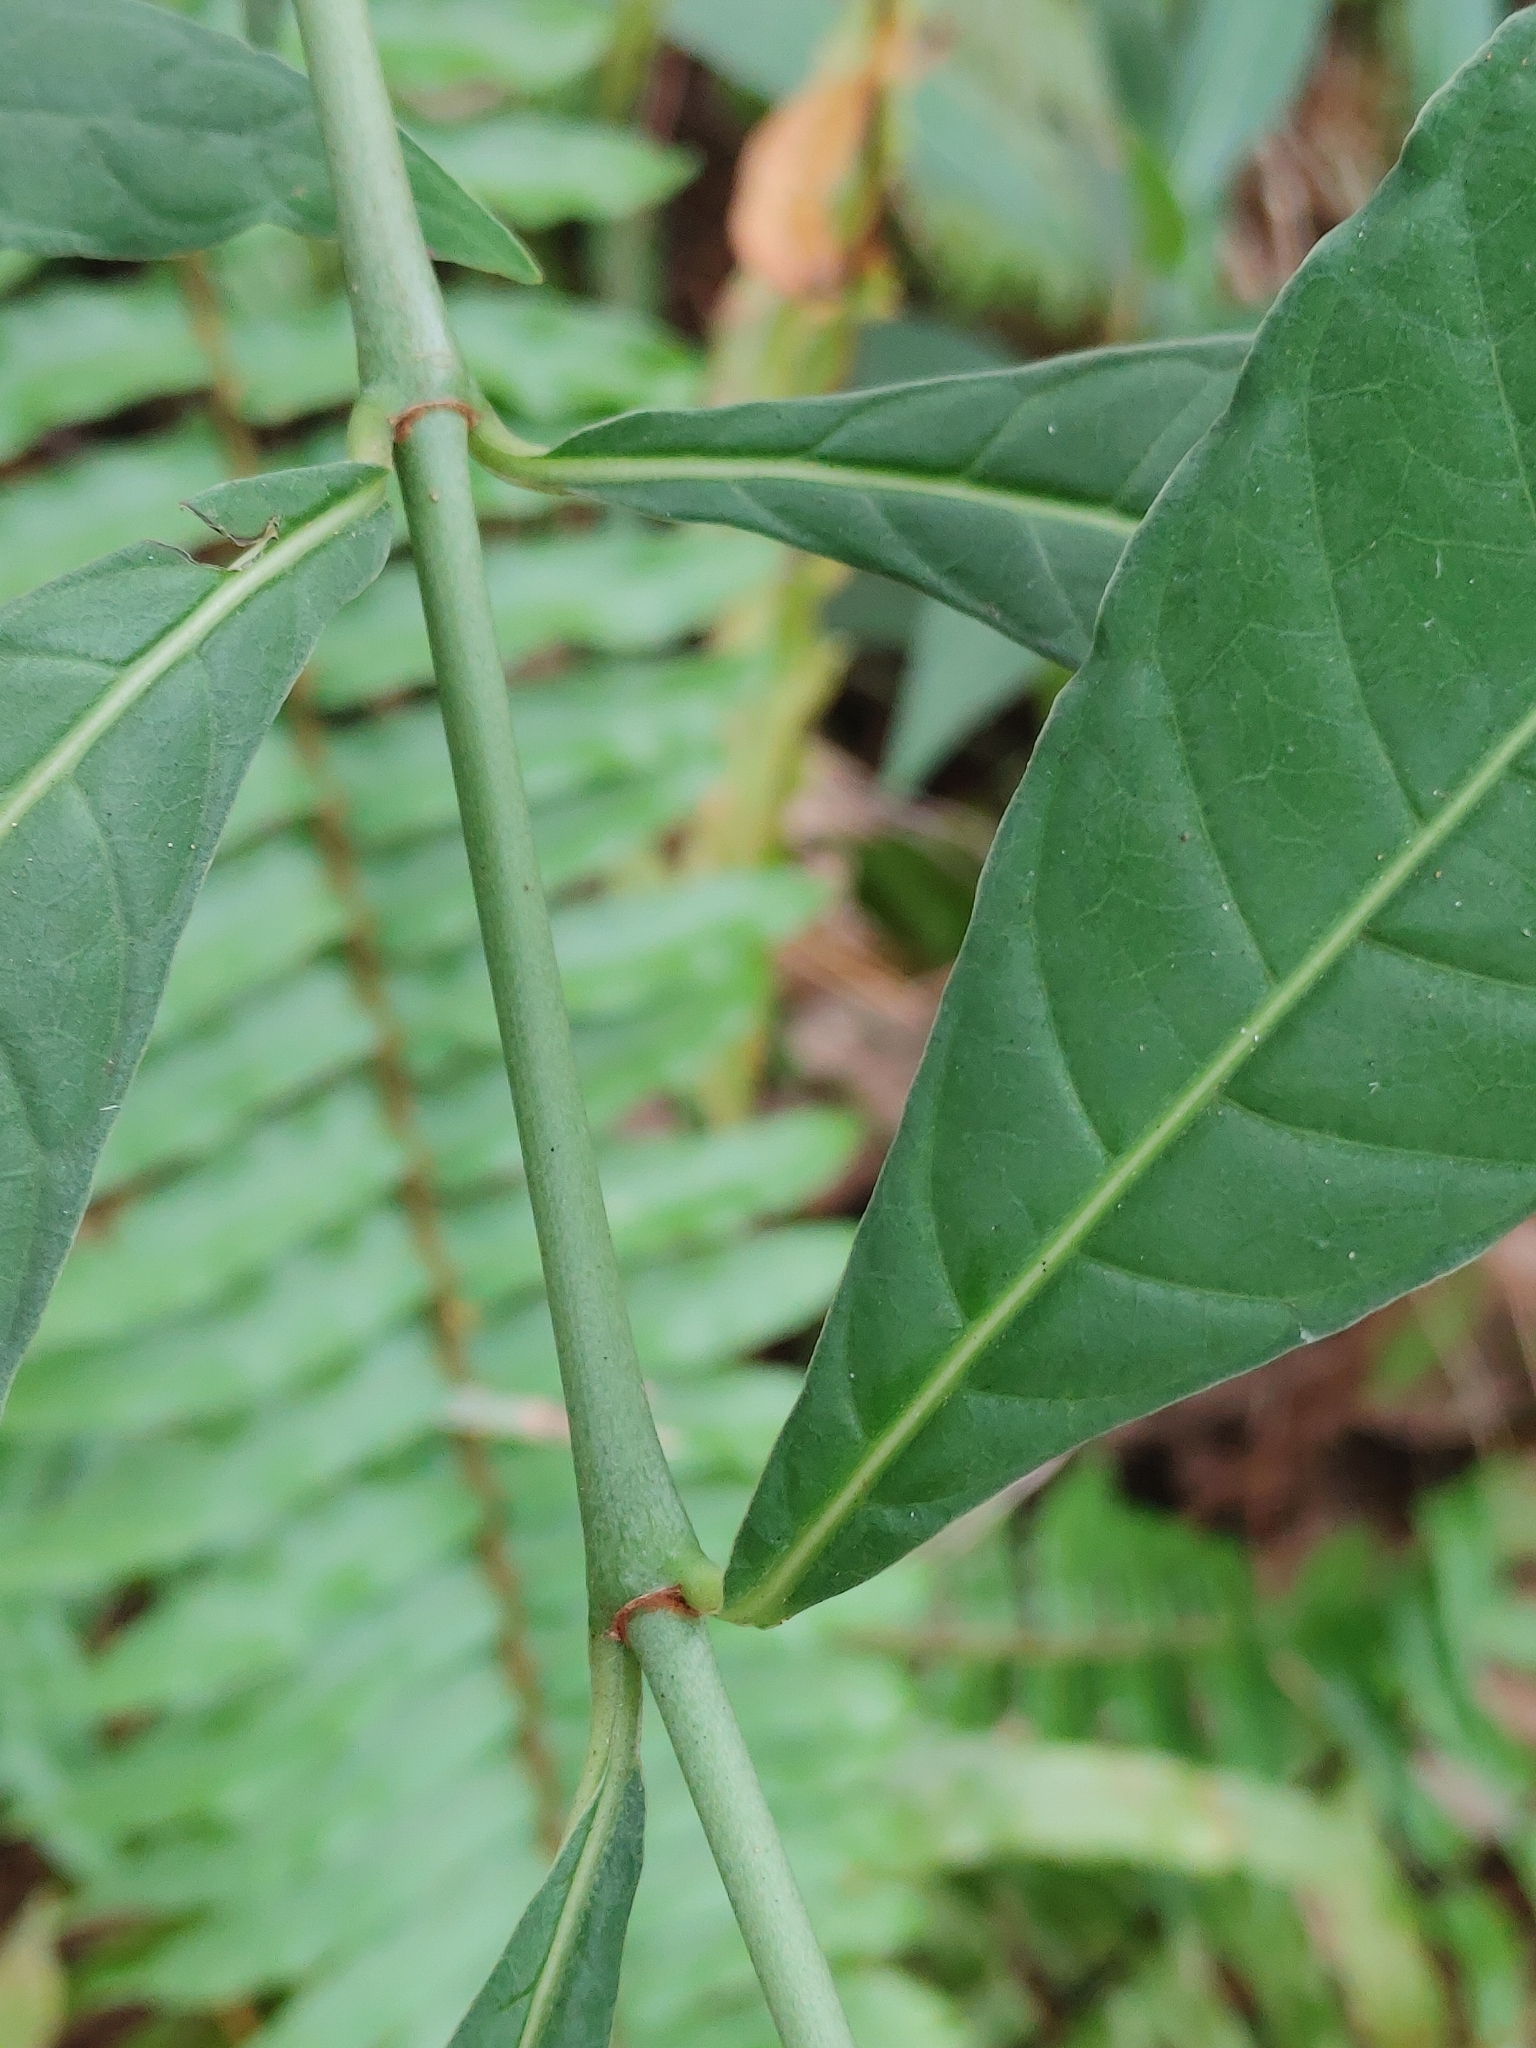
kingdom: Plantae
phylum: Tracheophyta
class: Magnoliopsida
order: Gentianales
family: Rubiaceae
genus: Psychotria
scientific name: Psychotria tenuifolia
